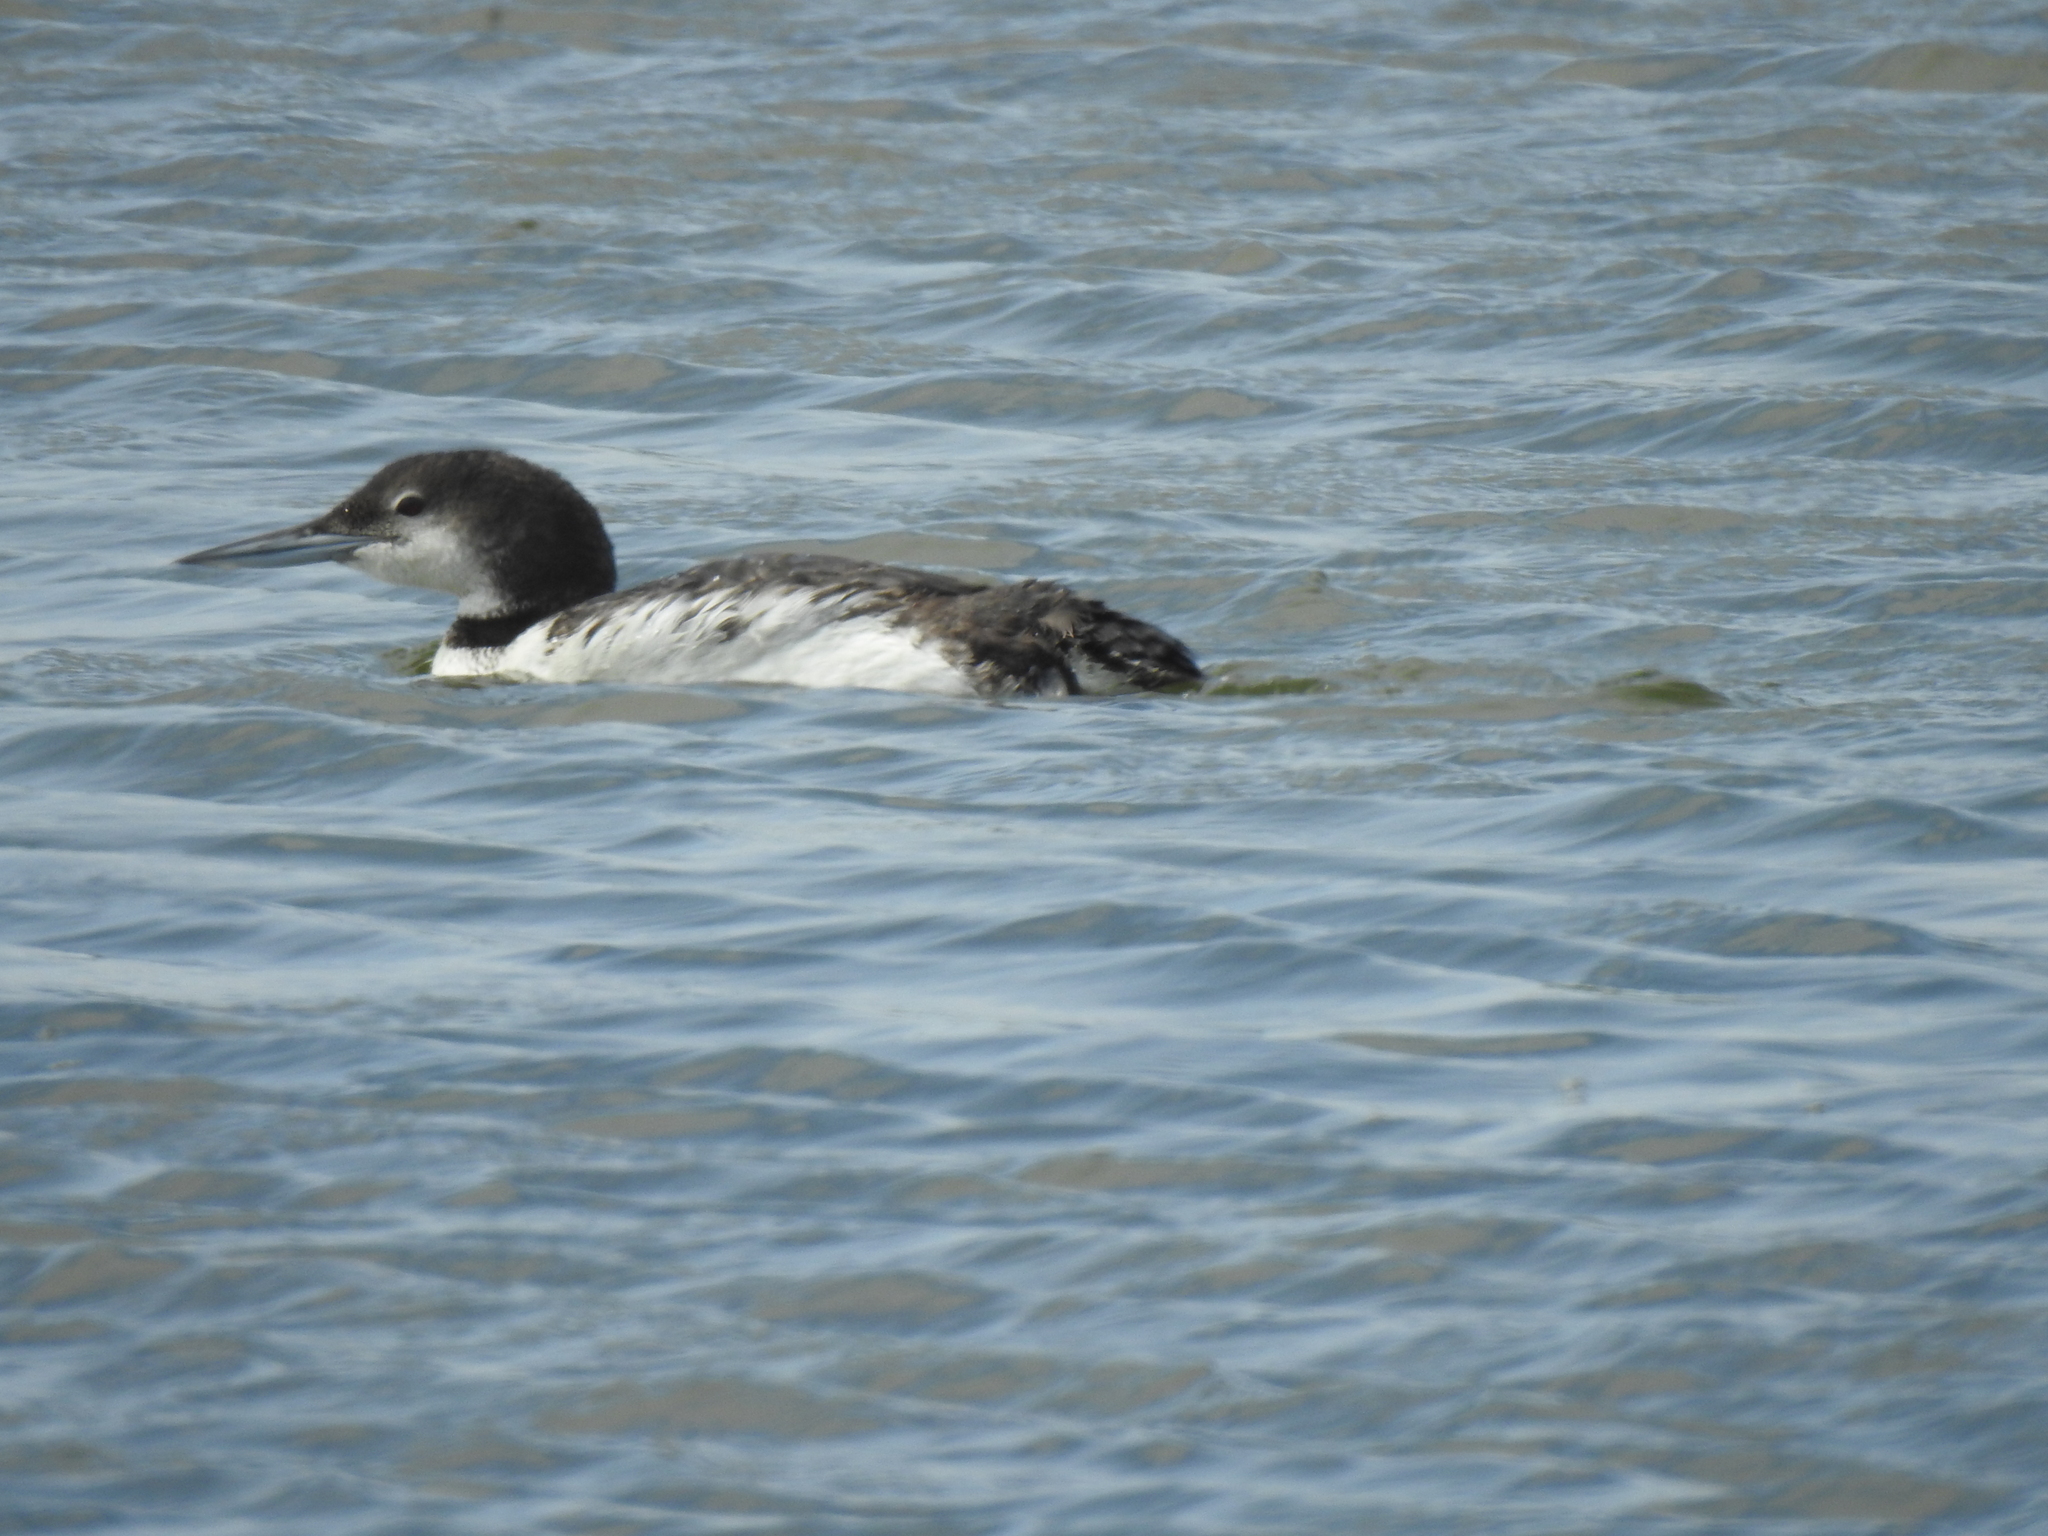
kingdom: Animalia
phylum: Chordata
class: Aves
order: Gaviiformes
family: Gaviidae
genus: Gavia
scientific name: Gavia immer
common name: Common loon
